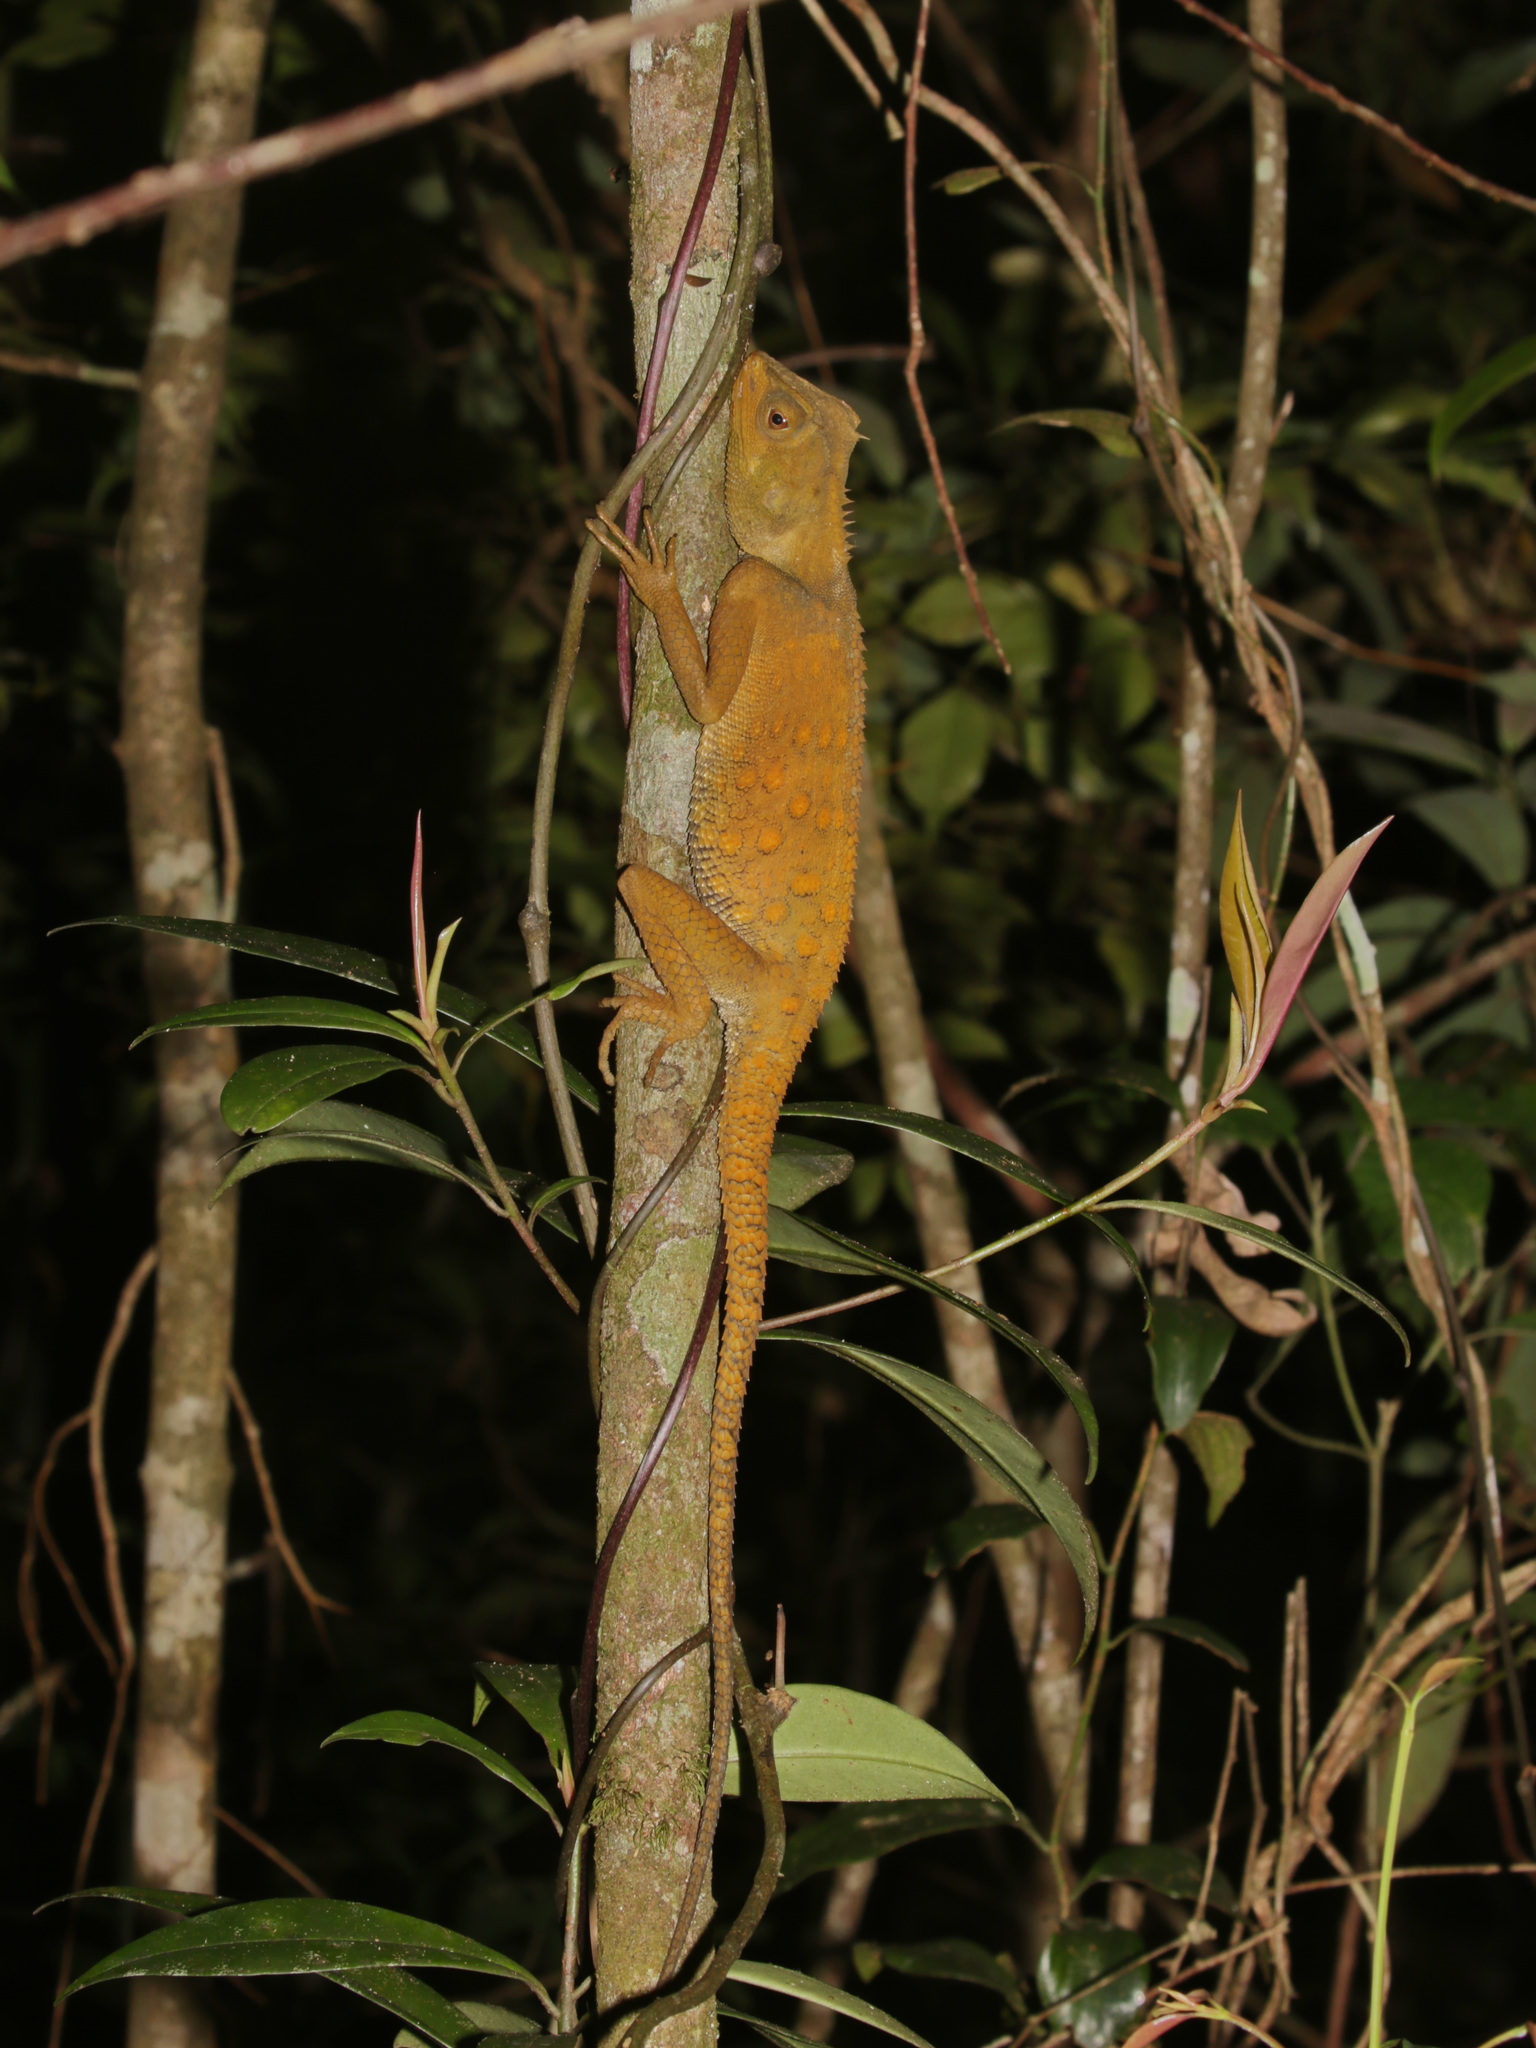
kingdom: Animalia
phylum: Chordata
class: Squamata
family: Agamidae
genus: Acanthosaura
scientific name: Acanthosaura bintangensis
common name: Bintang horned tree lizard
